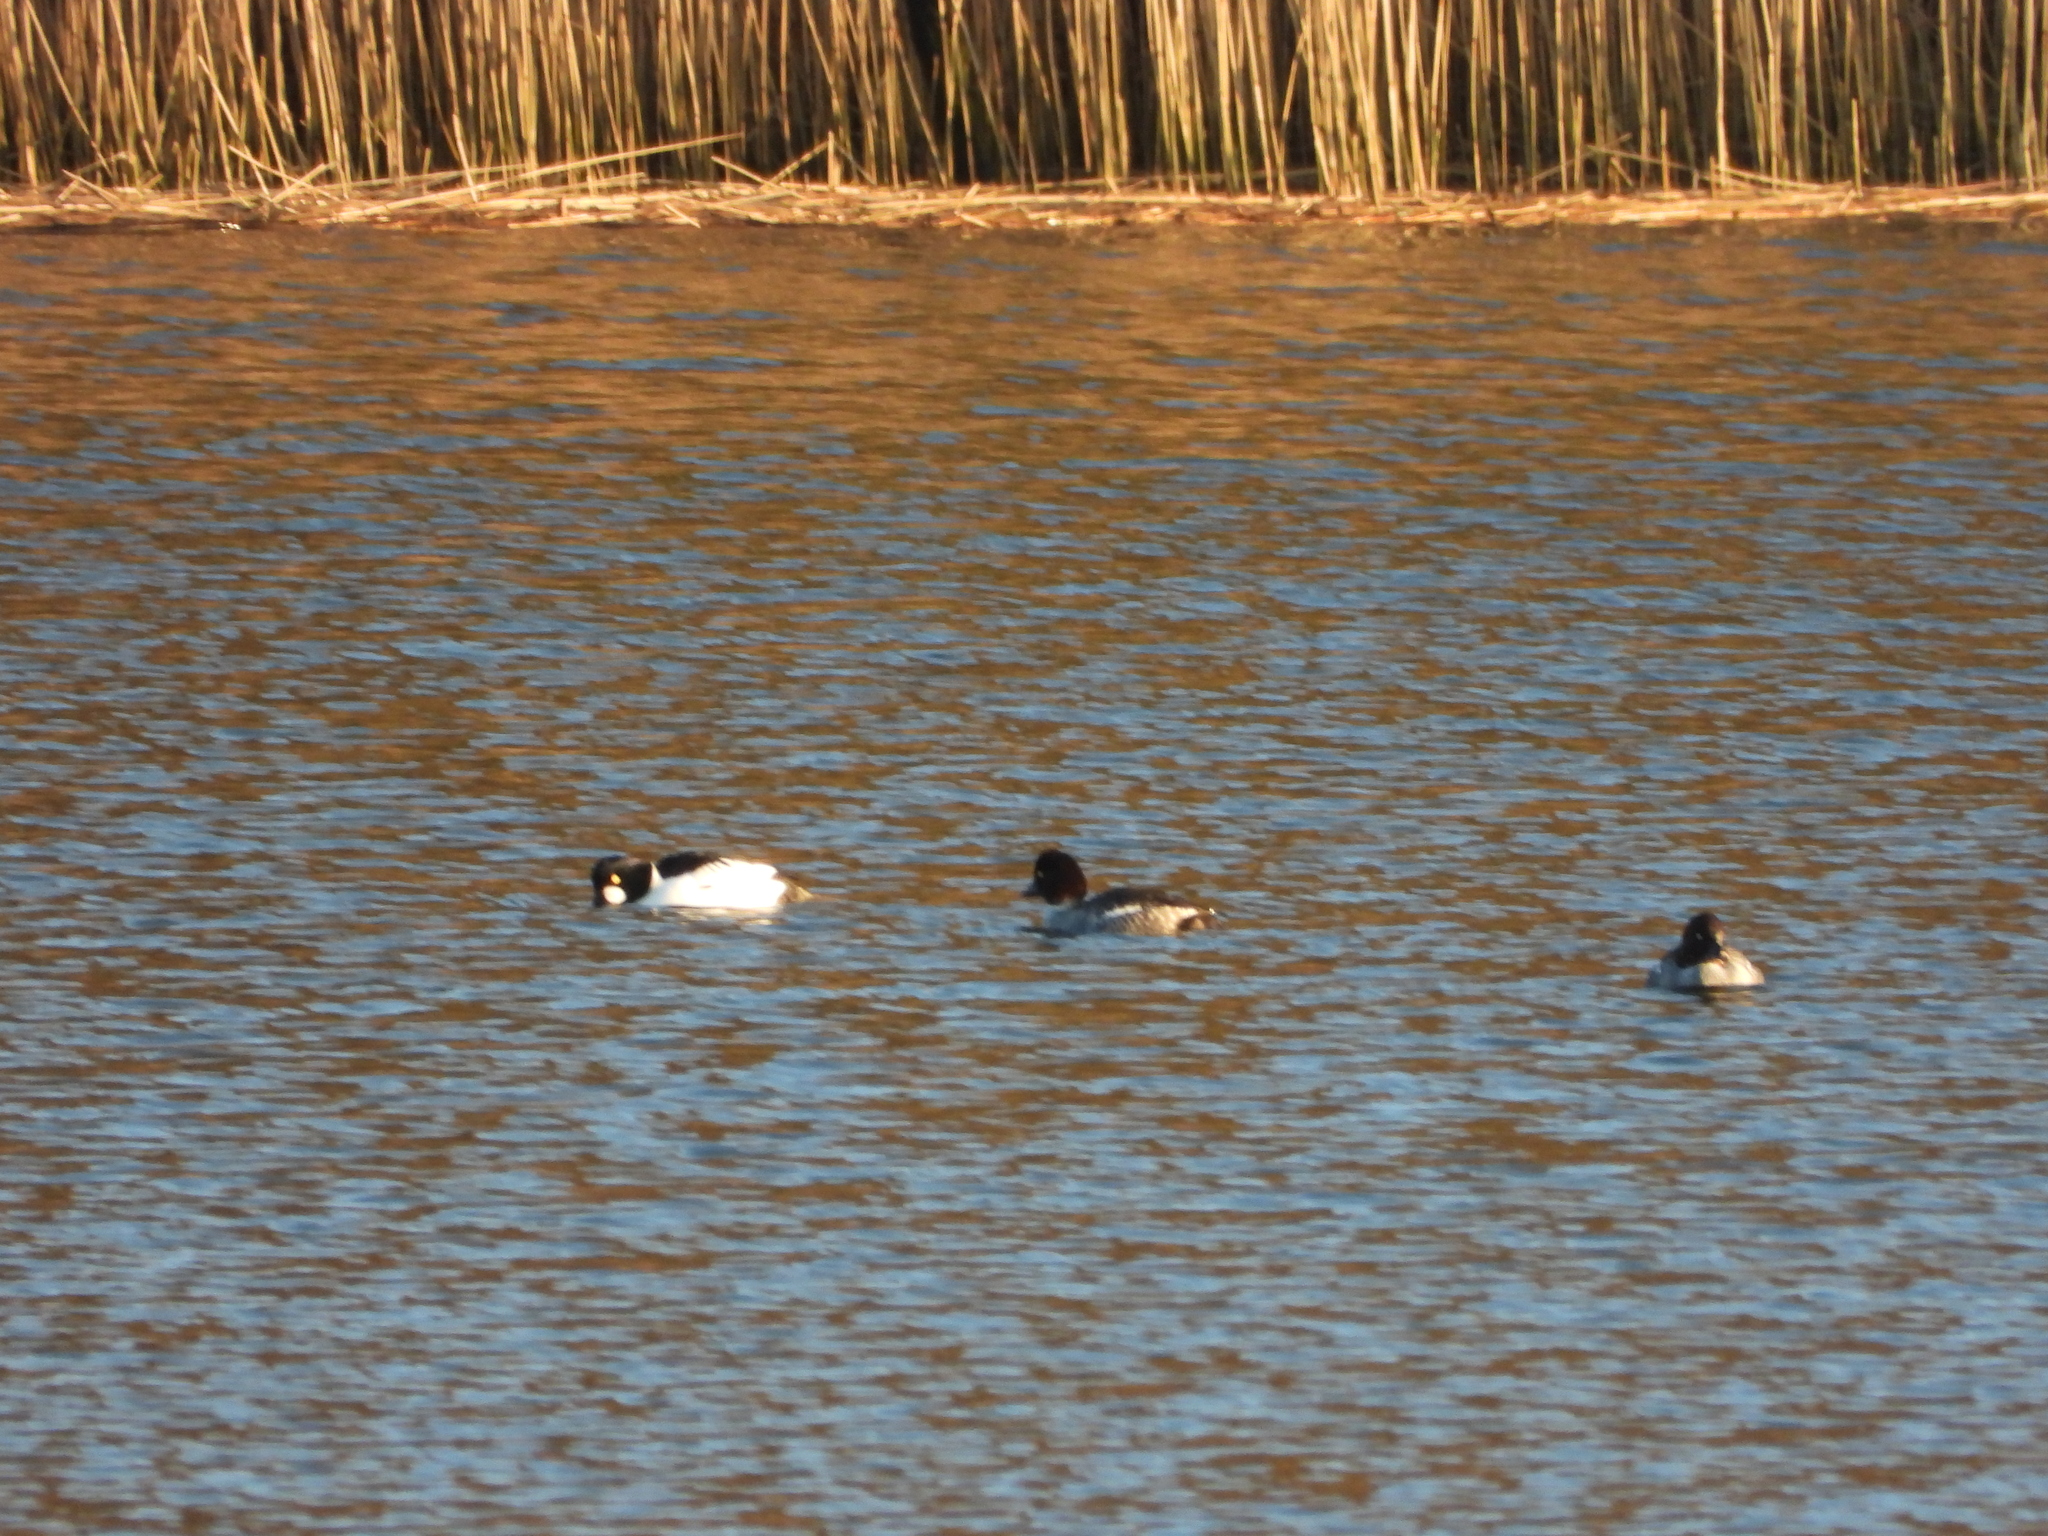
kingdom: Animalia
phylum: Chordata
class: Aves
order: Anseriformes
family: Anatidae
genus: Bucephala
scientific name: Bucephala clangula
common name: Common goldeneye
